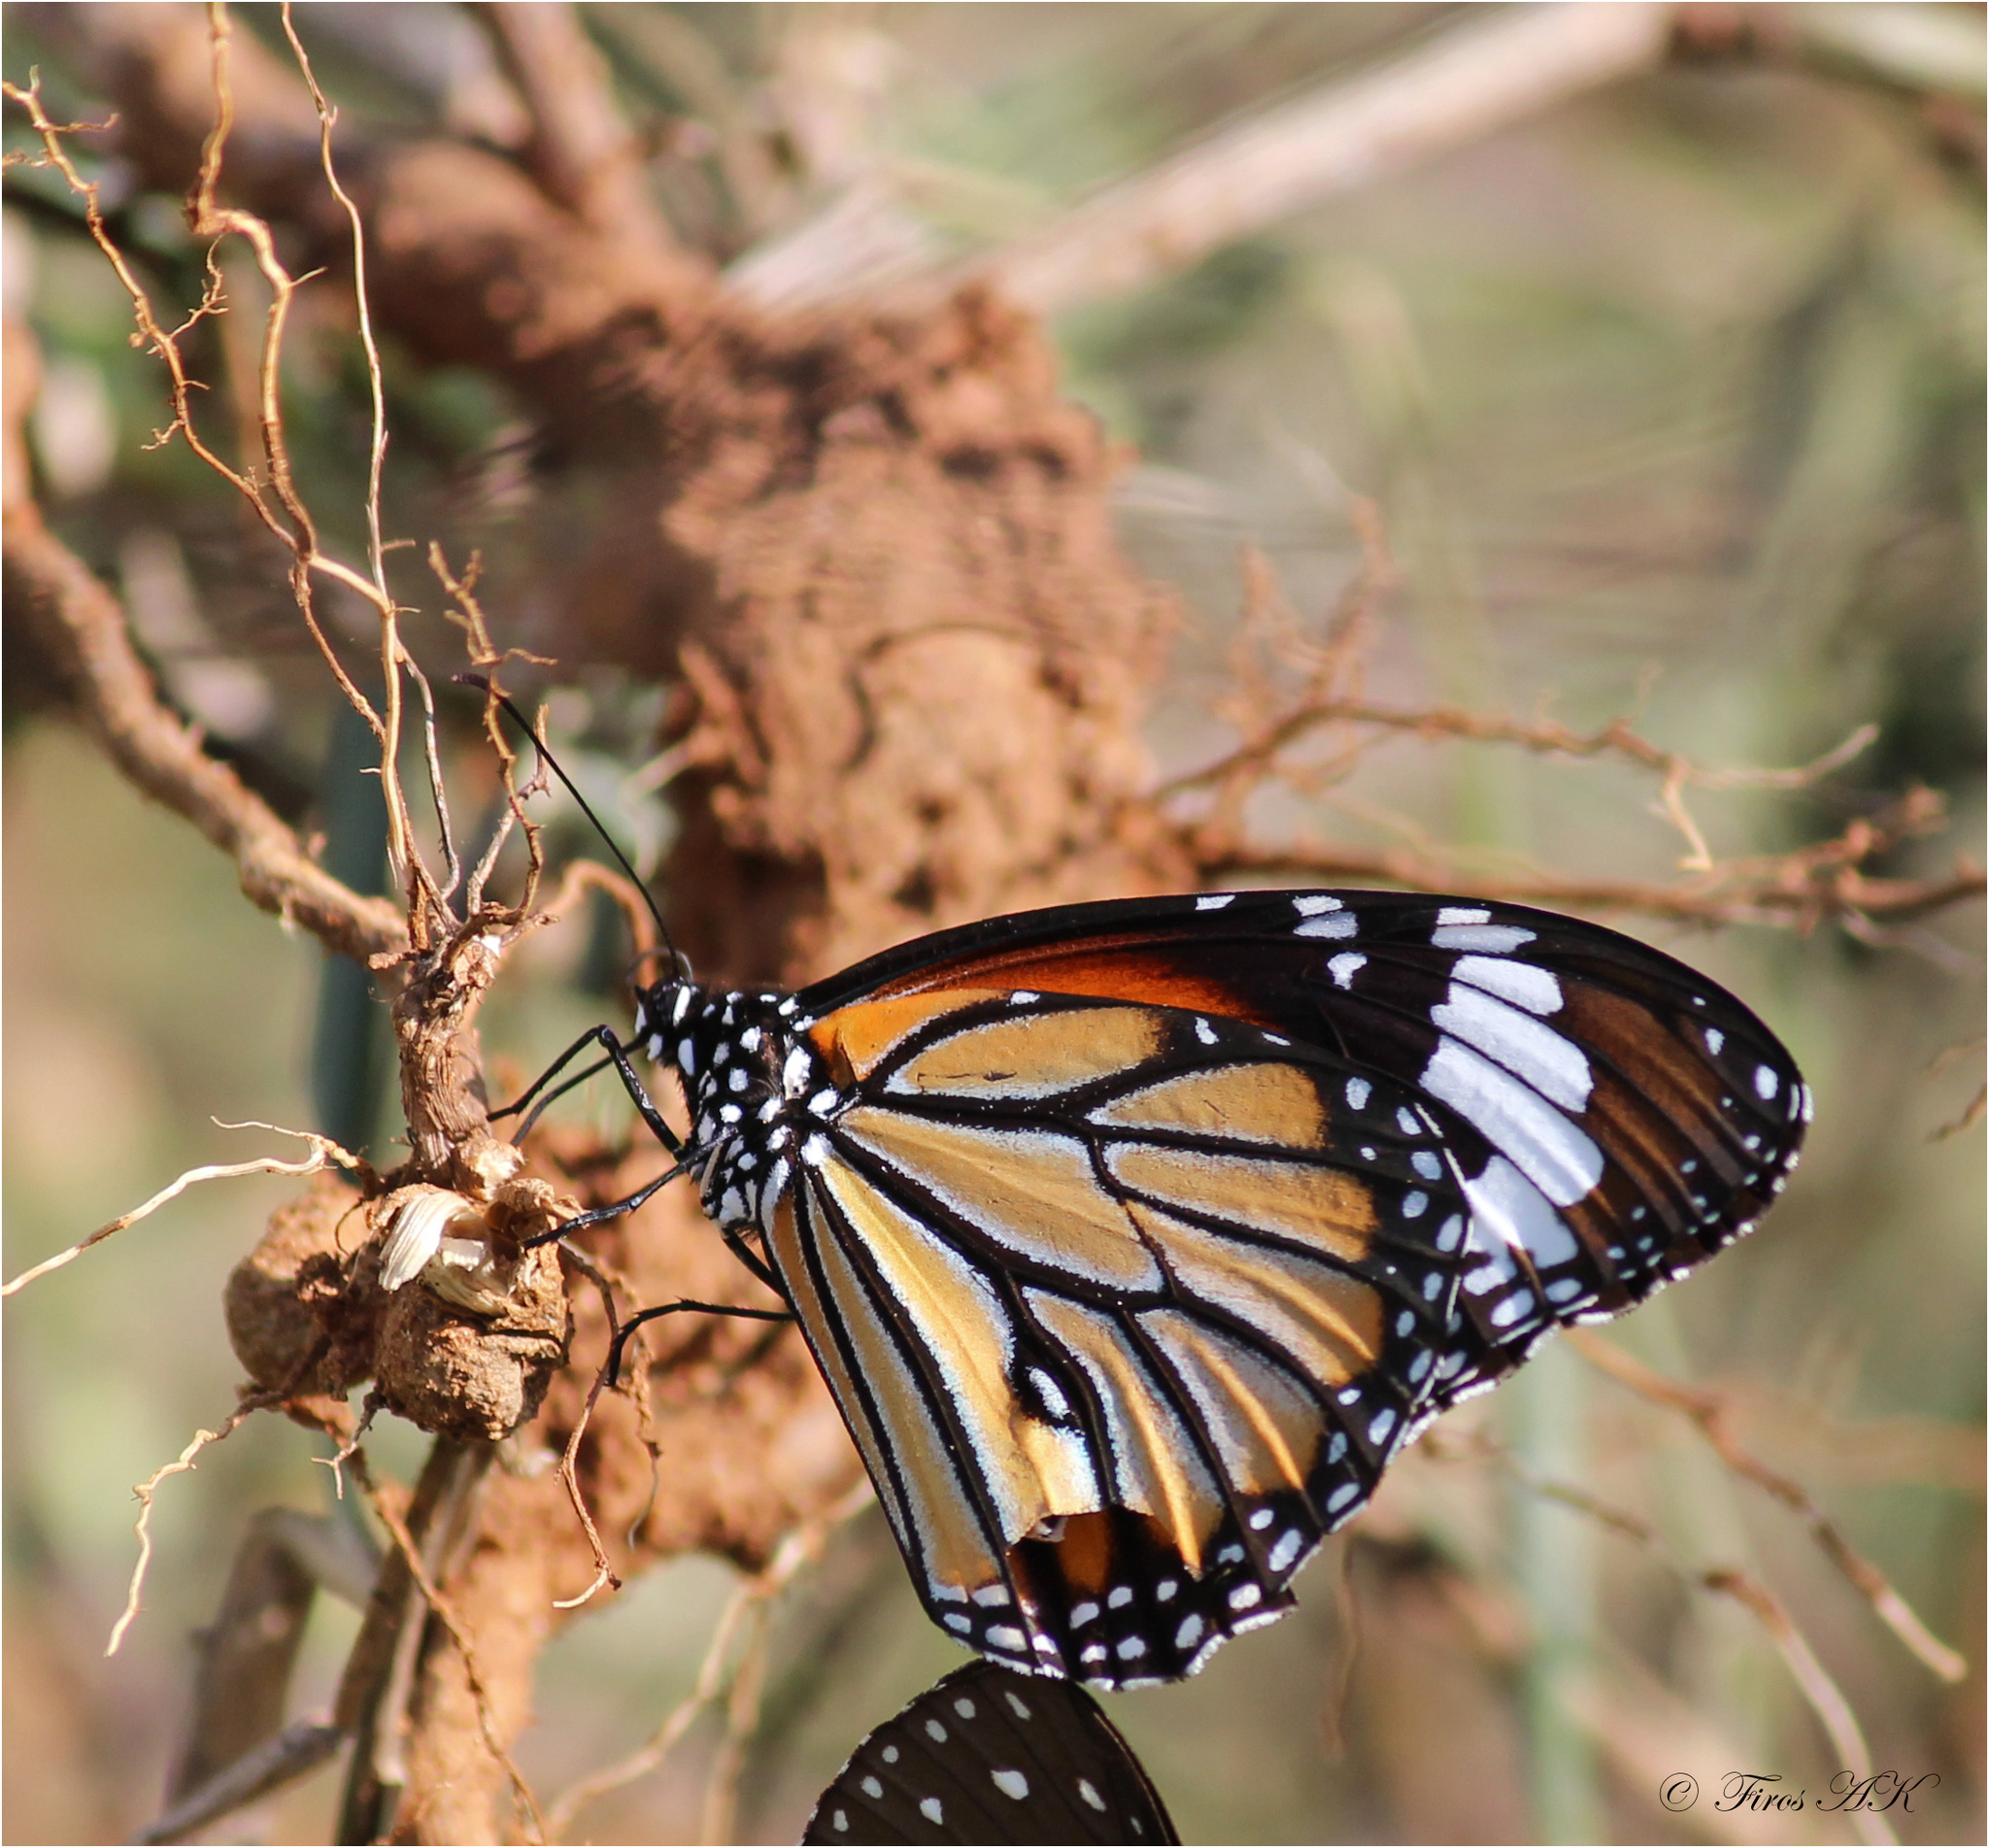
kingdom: Animalia
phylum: Arthropoda
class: Insecta
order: Lepidoptera
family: Nymphalidae
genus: Danaus
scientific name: Danaus genutia
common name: Common tiger butterfly
